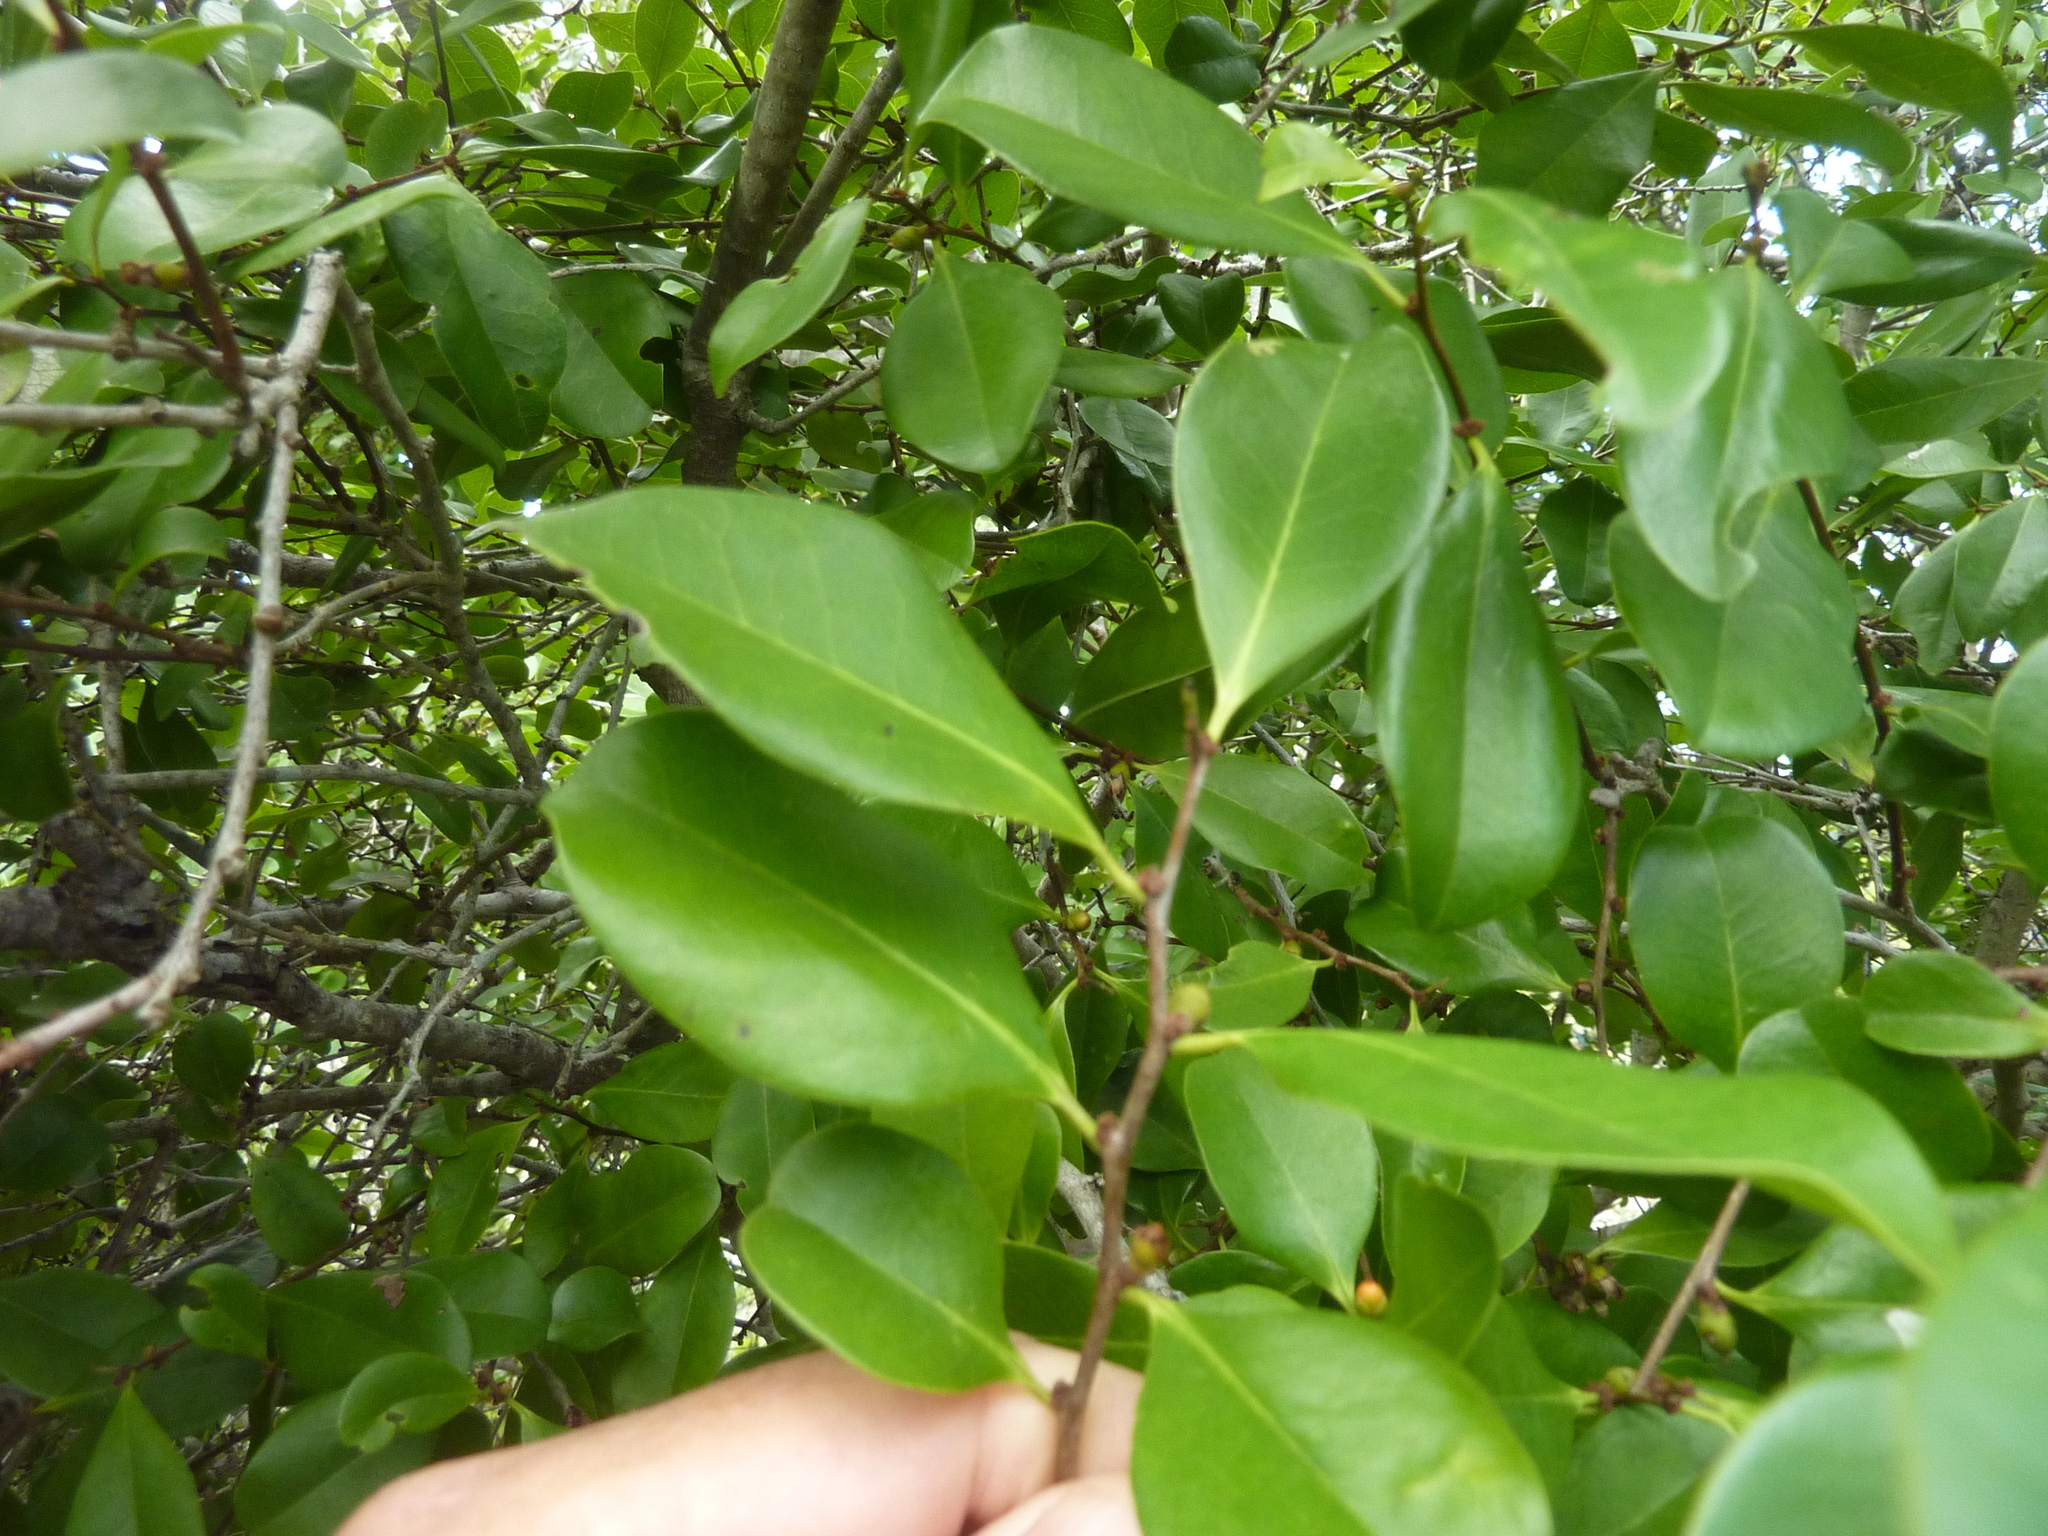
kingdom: Plantae
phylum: Tracheophyta
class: Magnoliopsida
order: Ericales
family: Ebenaceae
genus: Diospyros
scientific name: Diospyros geminata
